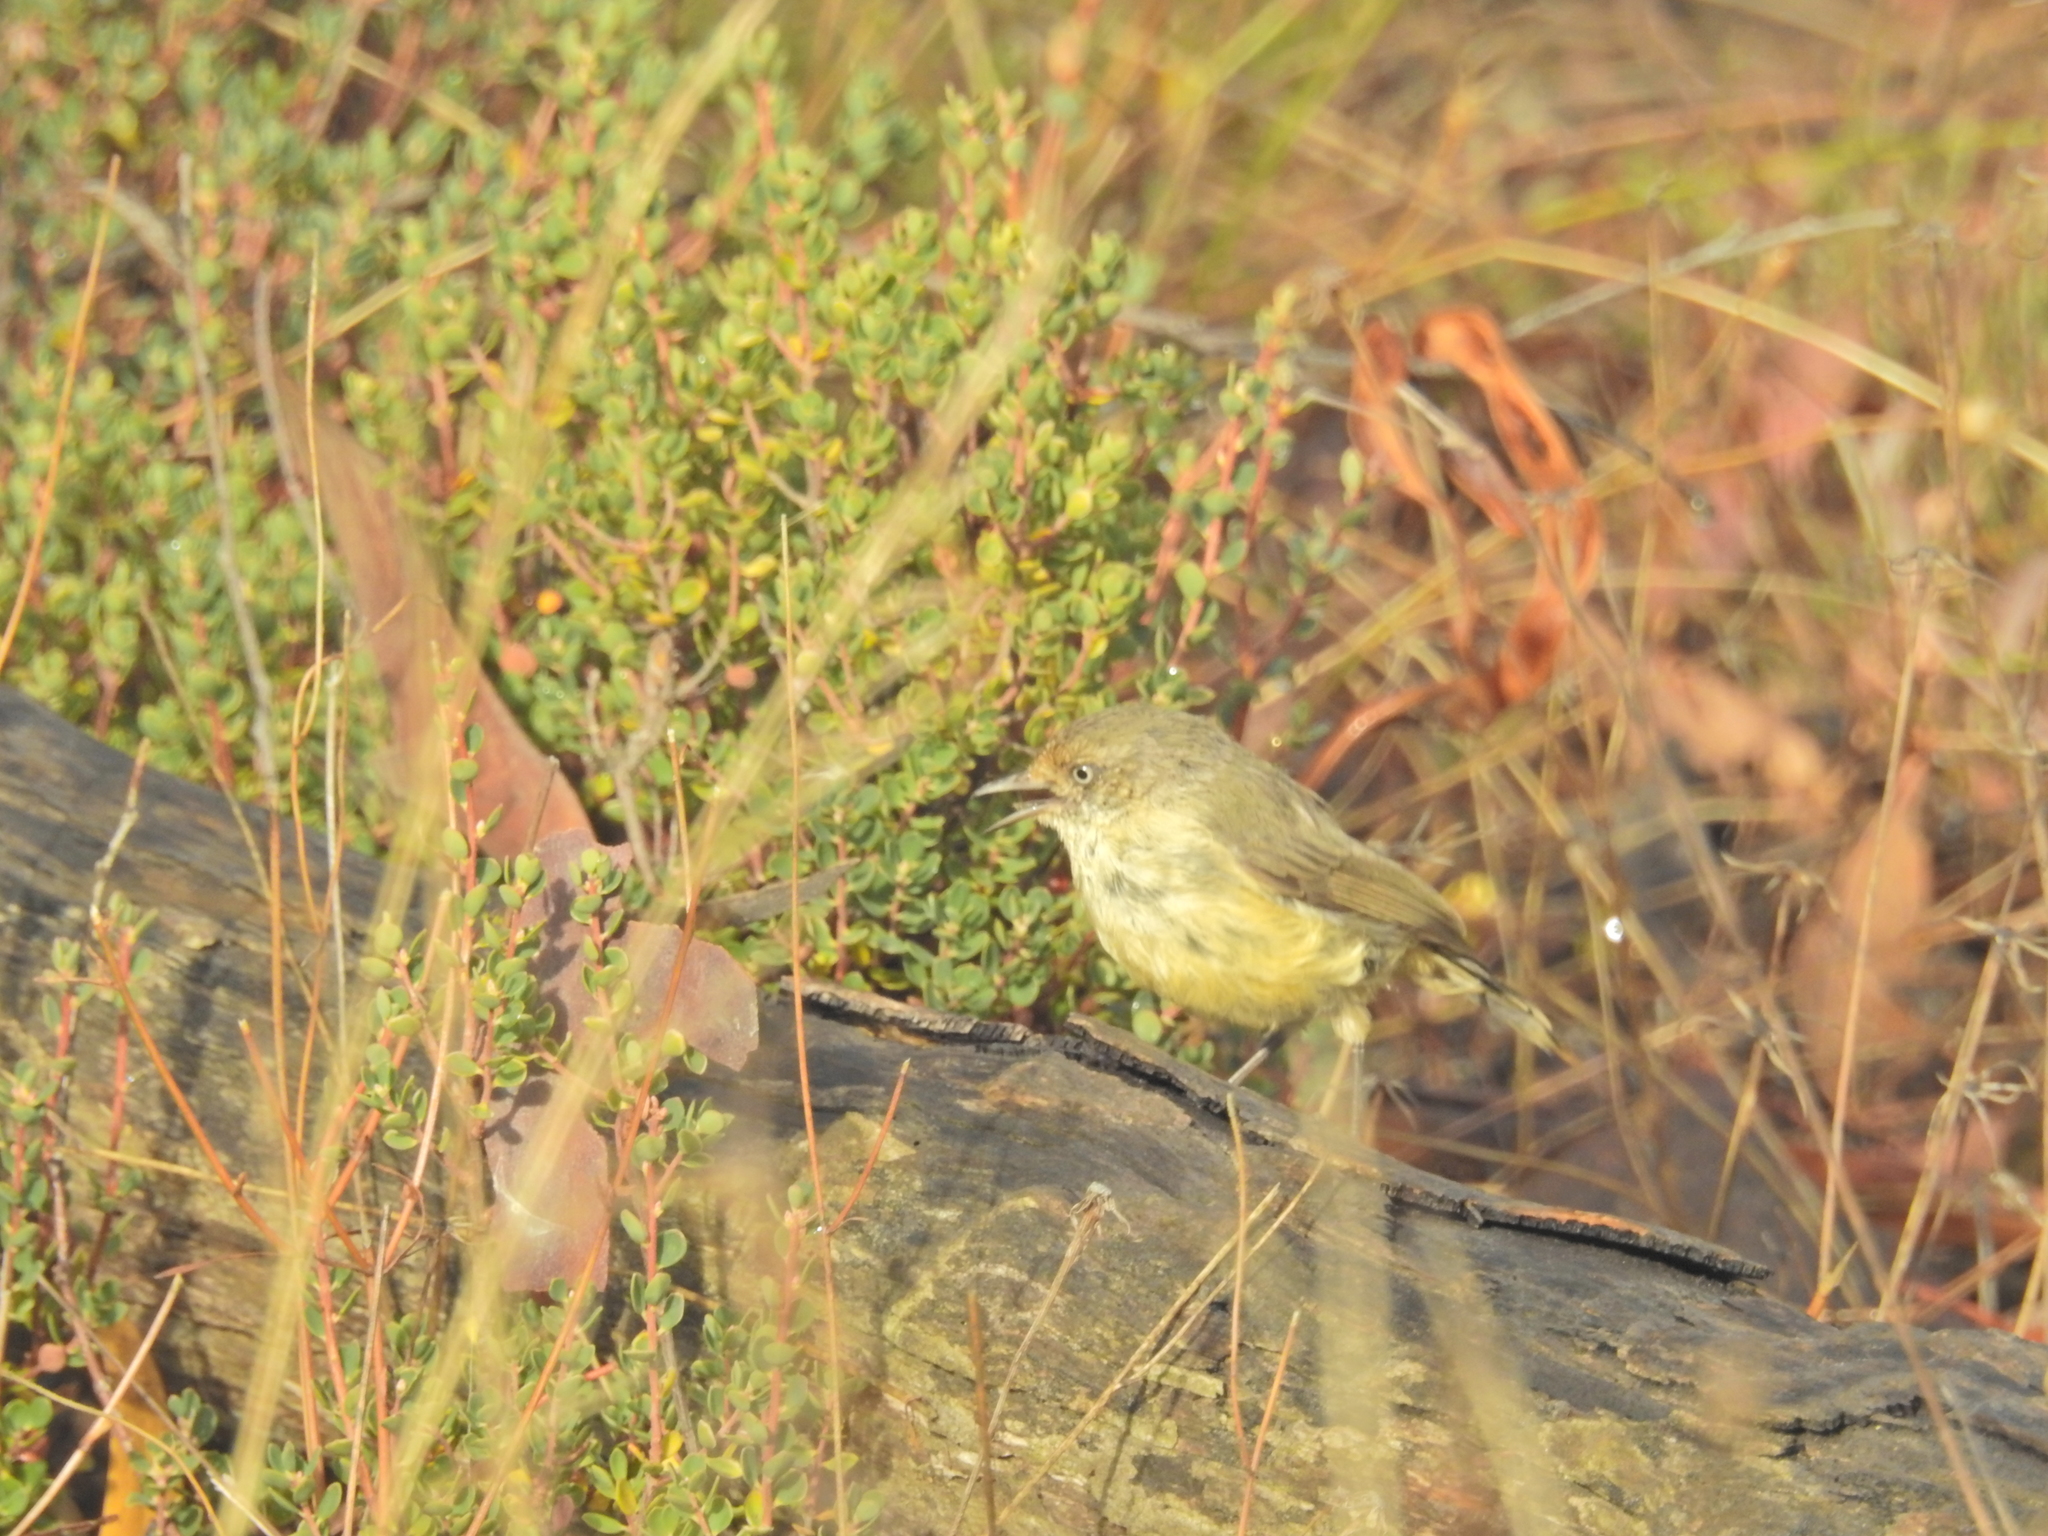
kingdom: Animalia
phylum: Chordata
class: Aves
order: Passeriformes
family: Acanthizidae
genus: Acanthiza
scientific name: Acanthiza reguloides
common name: Buff-rumped thornbill
